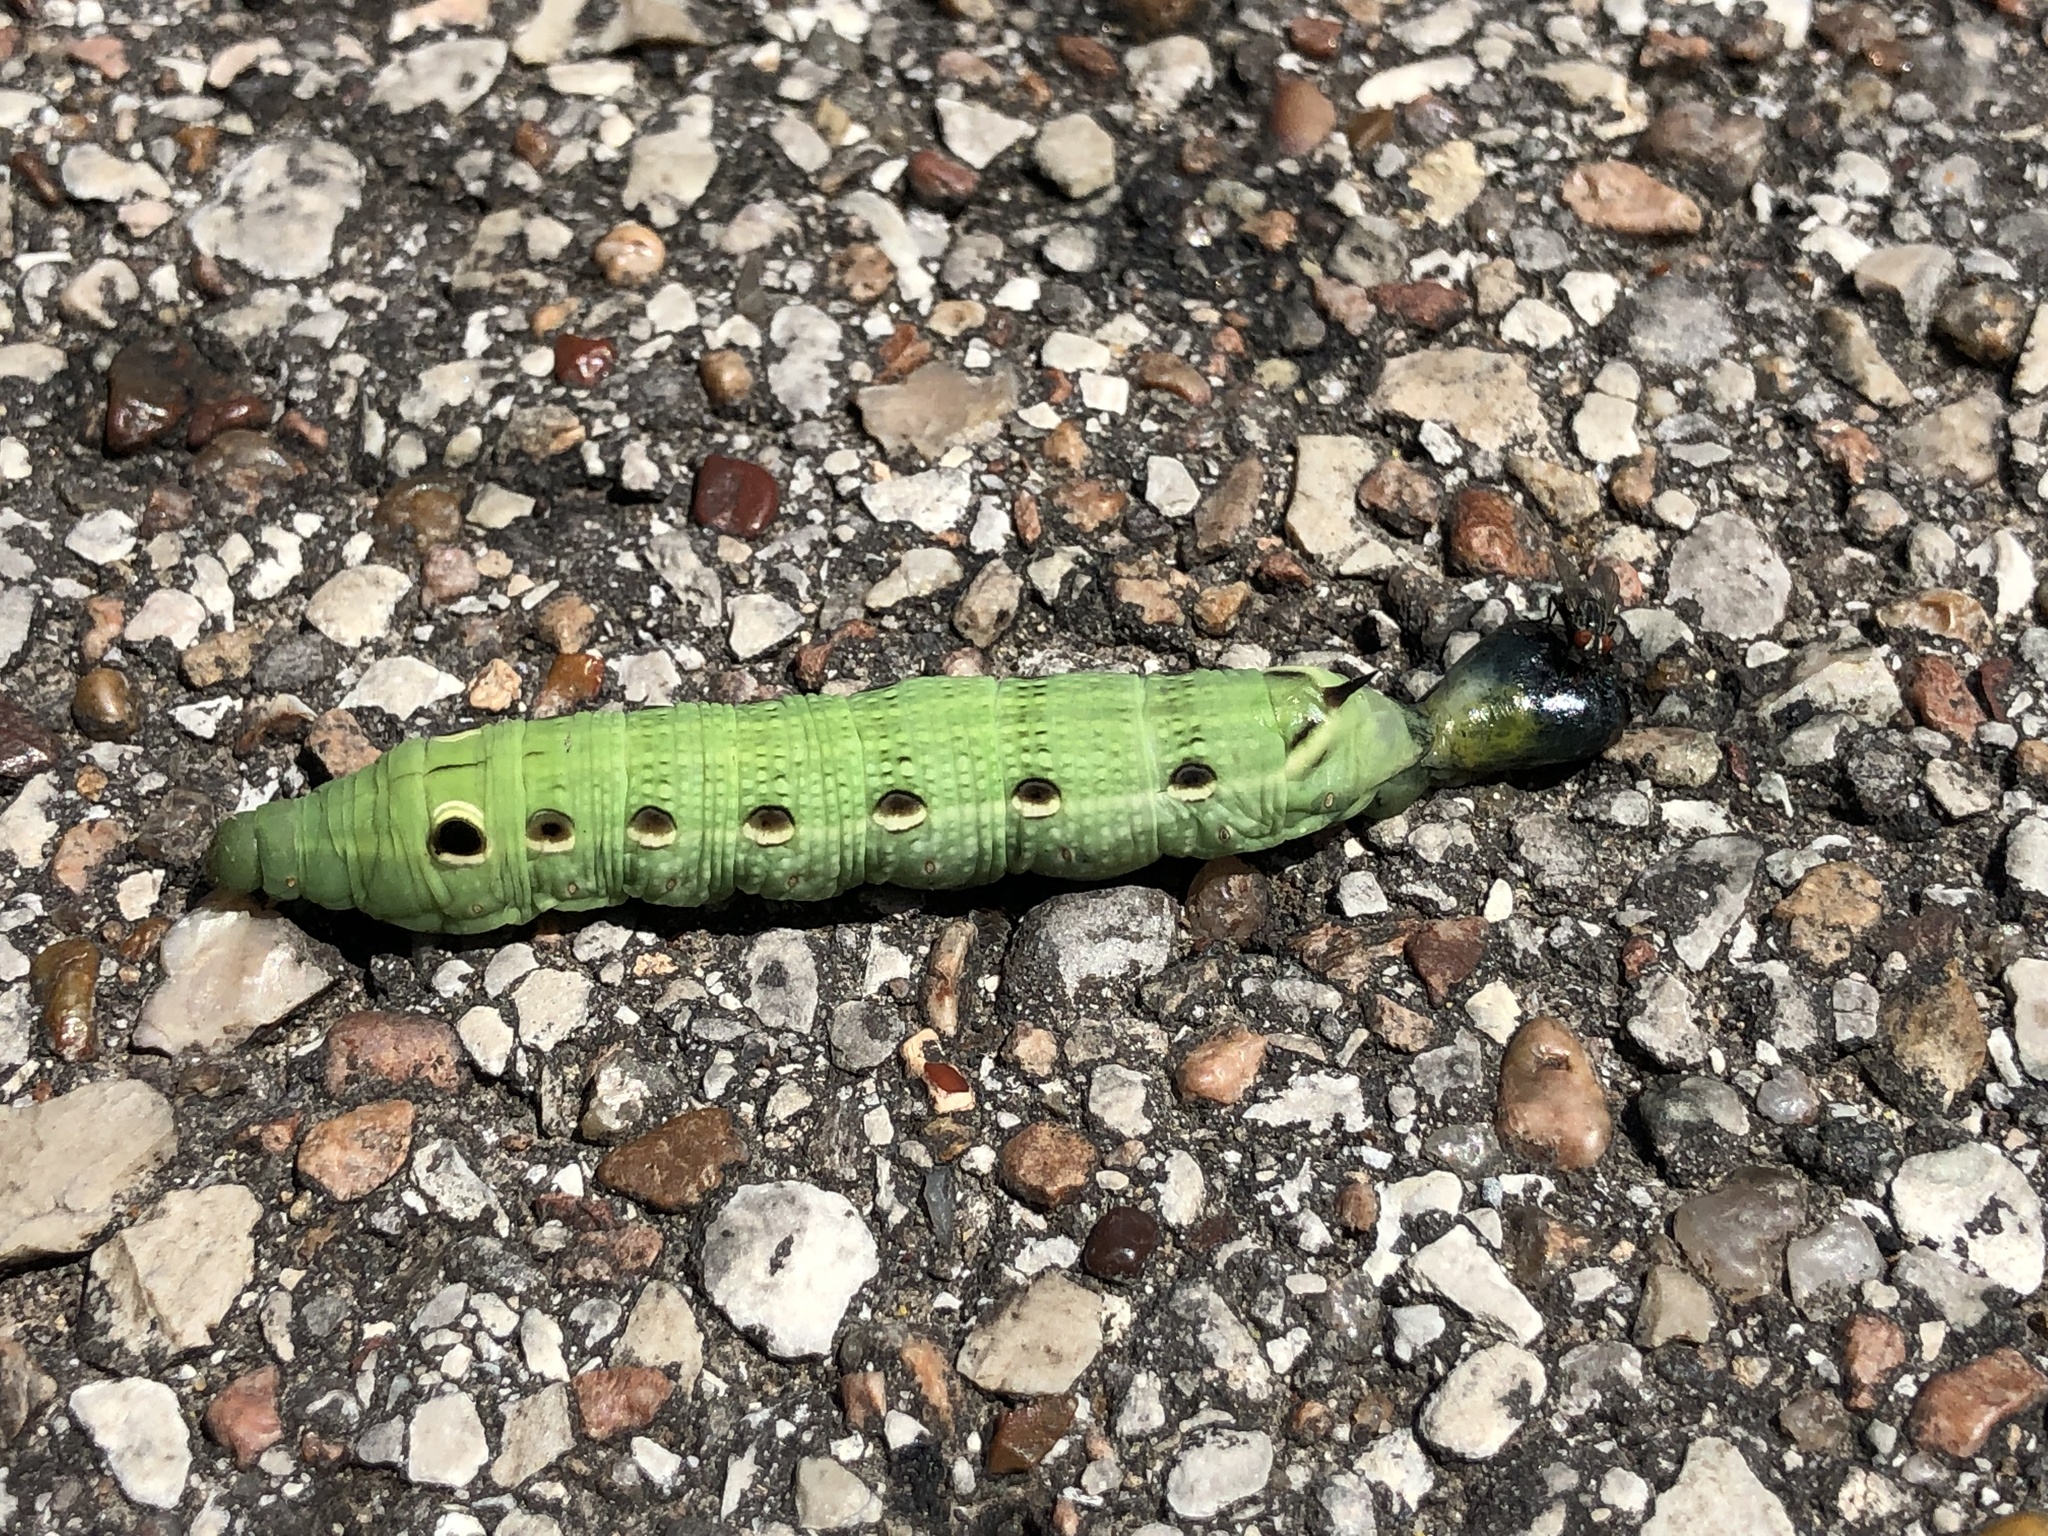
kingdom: Animalia
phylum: Arthropoda
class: Insecta
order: Lepidoptera
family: Sphingidae
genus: Xylophanes
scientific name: Xylophanes tersa
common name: Tersa sphinx
